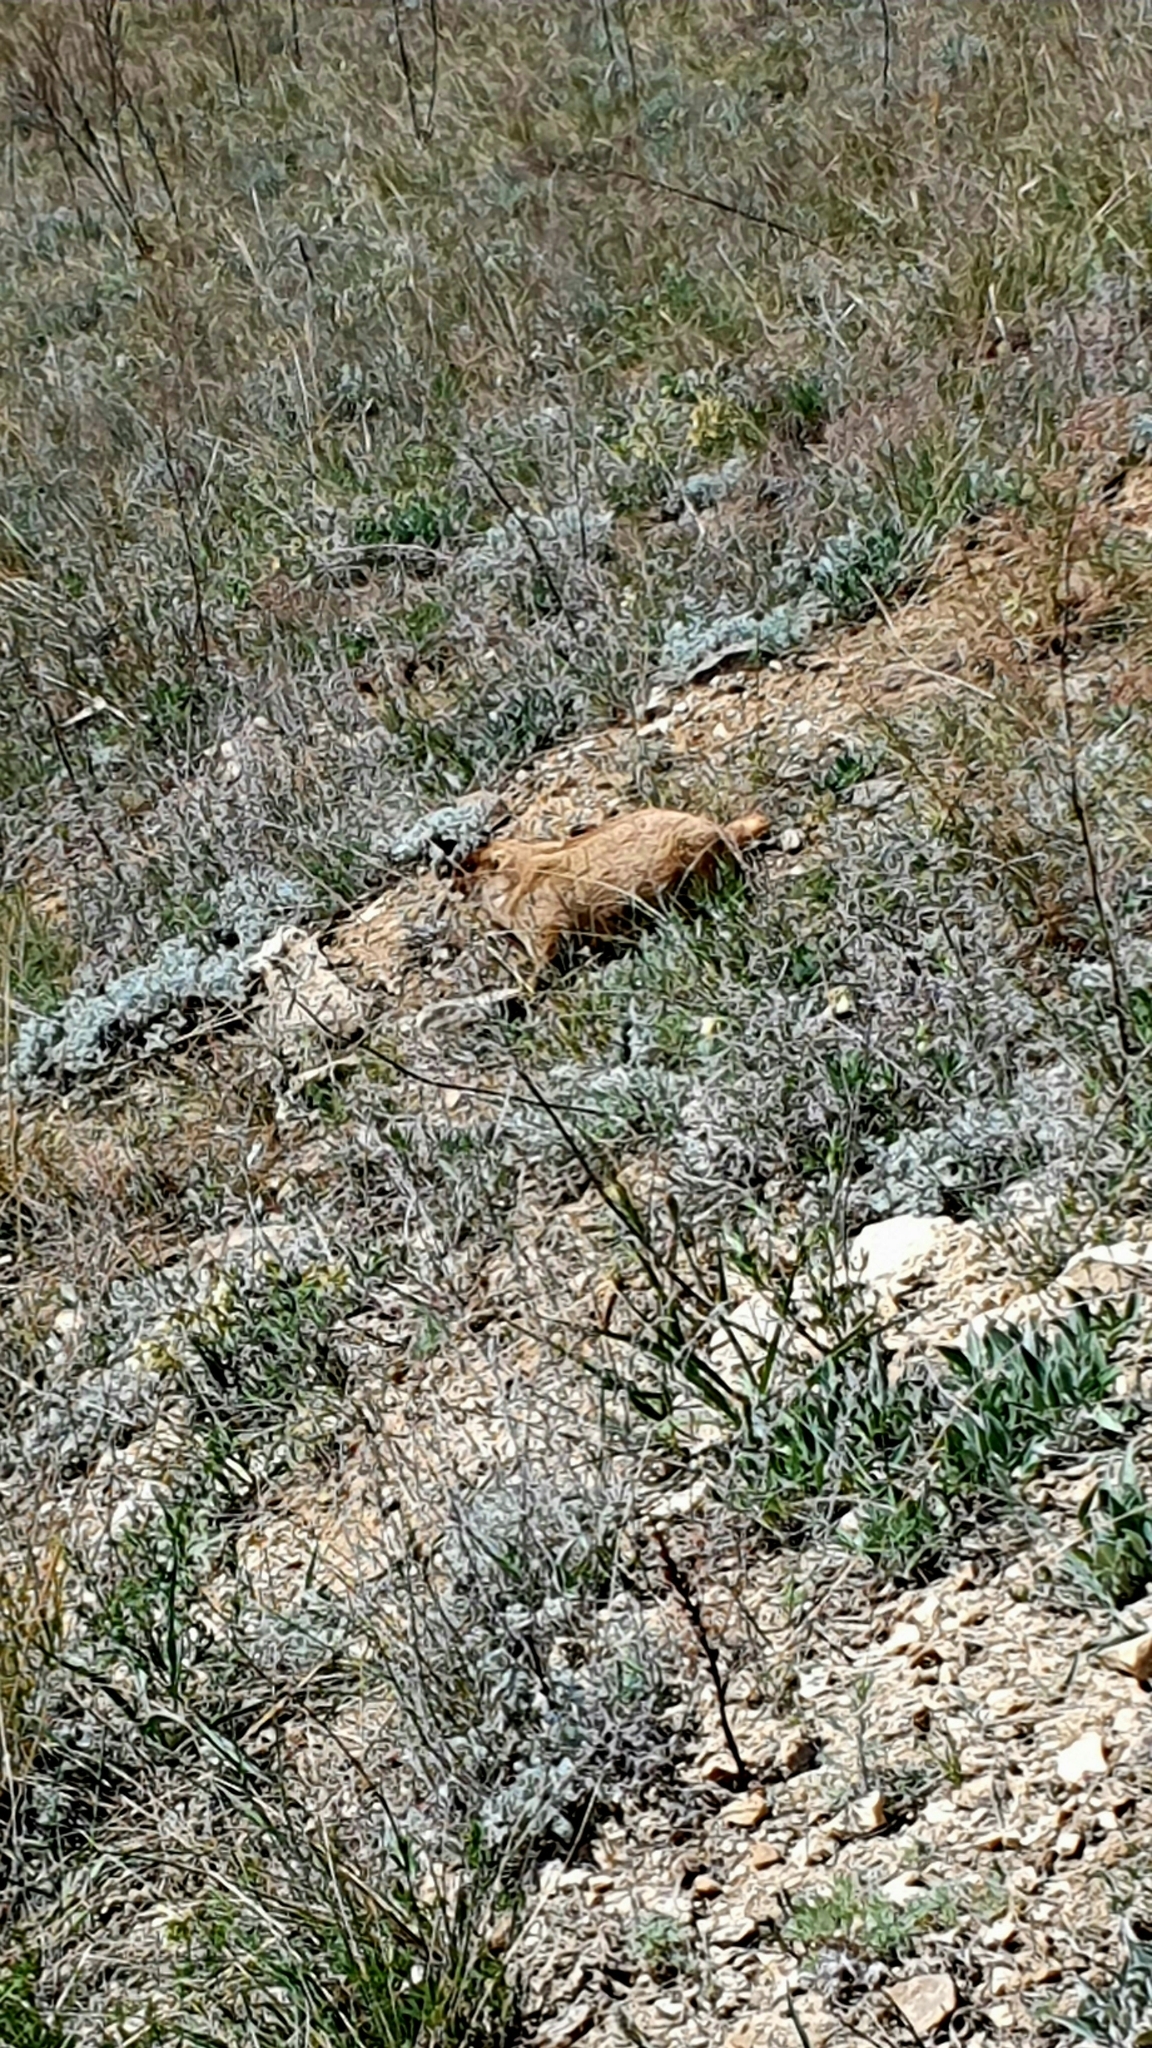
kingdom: Animalia
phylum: Chordata
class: Mammalia
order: Rodentia
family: Sciuridae
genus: Marmota
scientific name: Marmota bobak
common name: Bobak marmot
